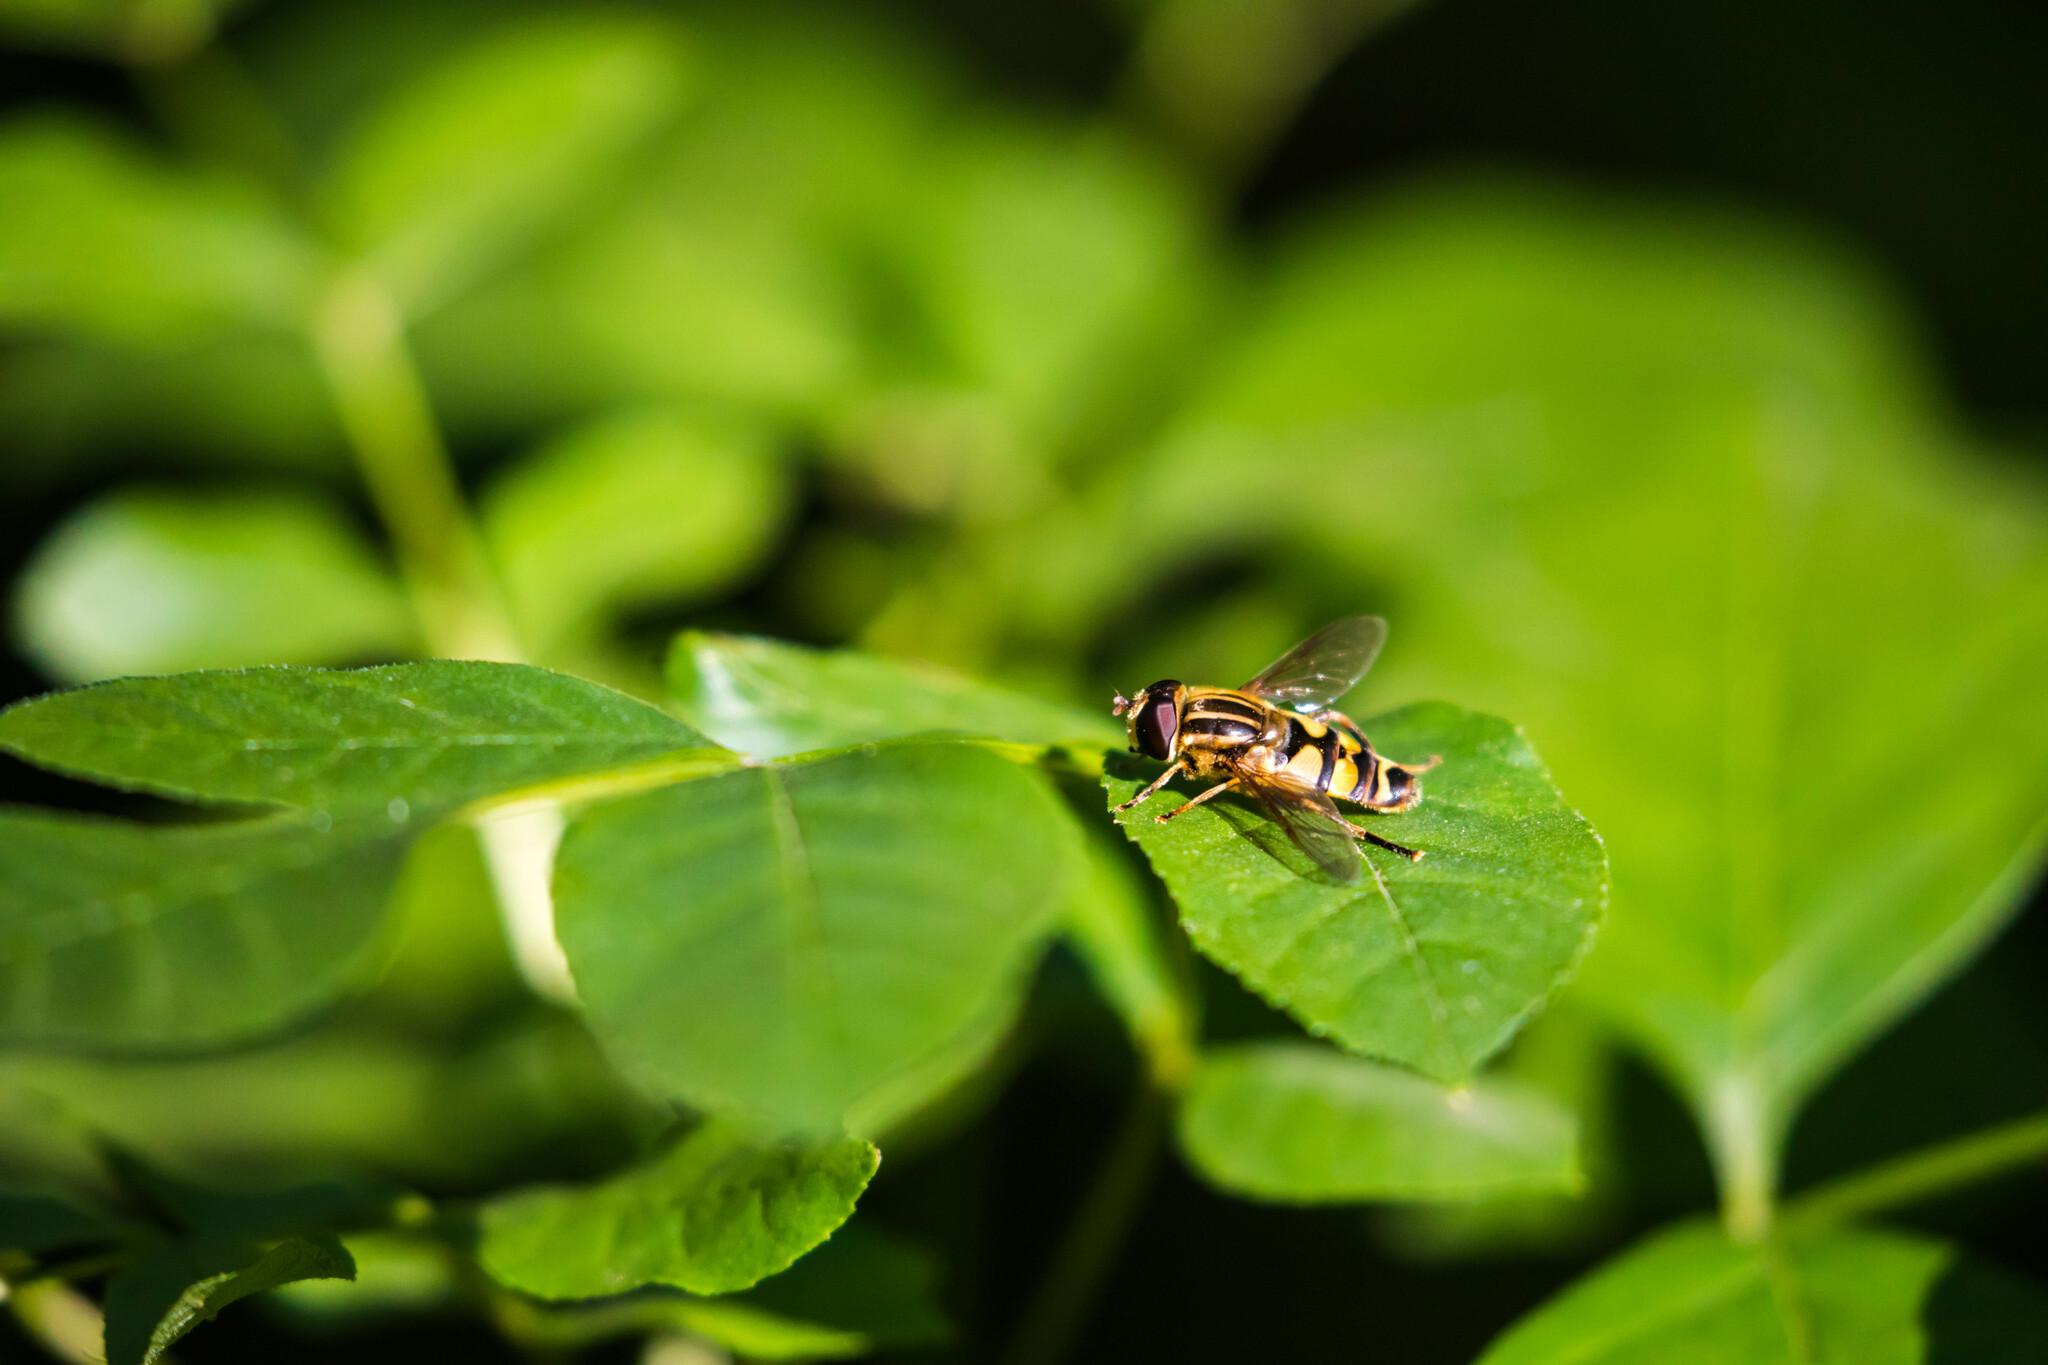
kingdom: Animalia
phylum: Arthropoda
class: Insecta
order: Diptera
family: Syrphidae
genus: Helophilus
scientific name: Helophilus fasciatus
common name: Narrow-headed marsh fly
